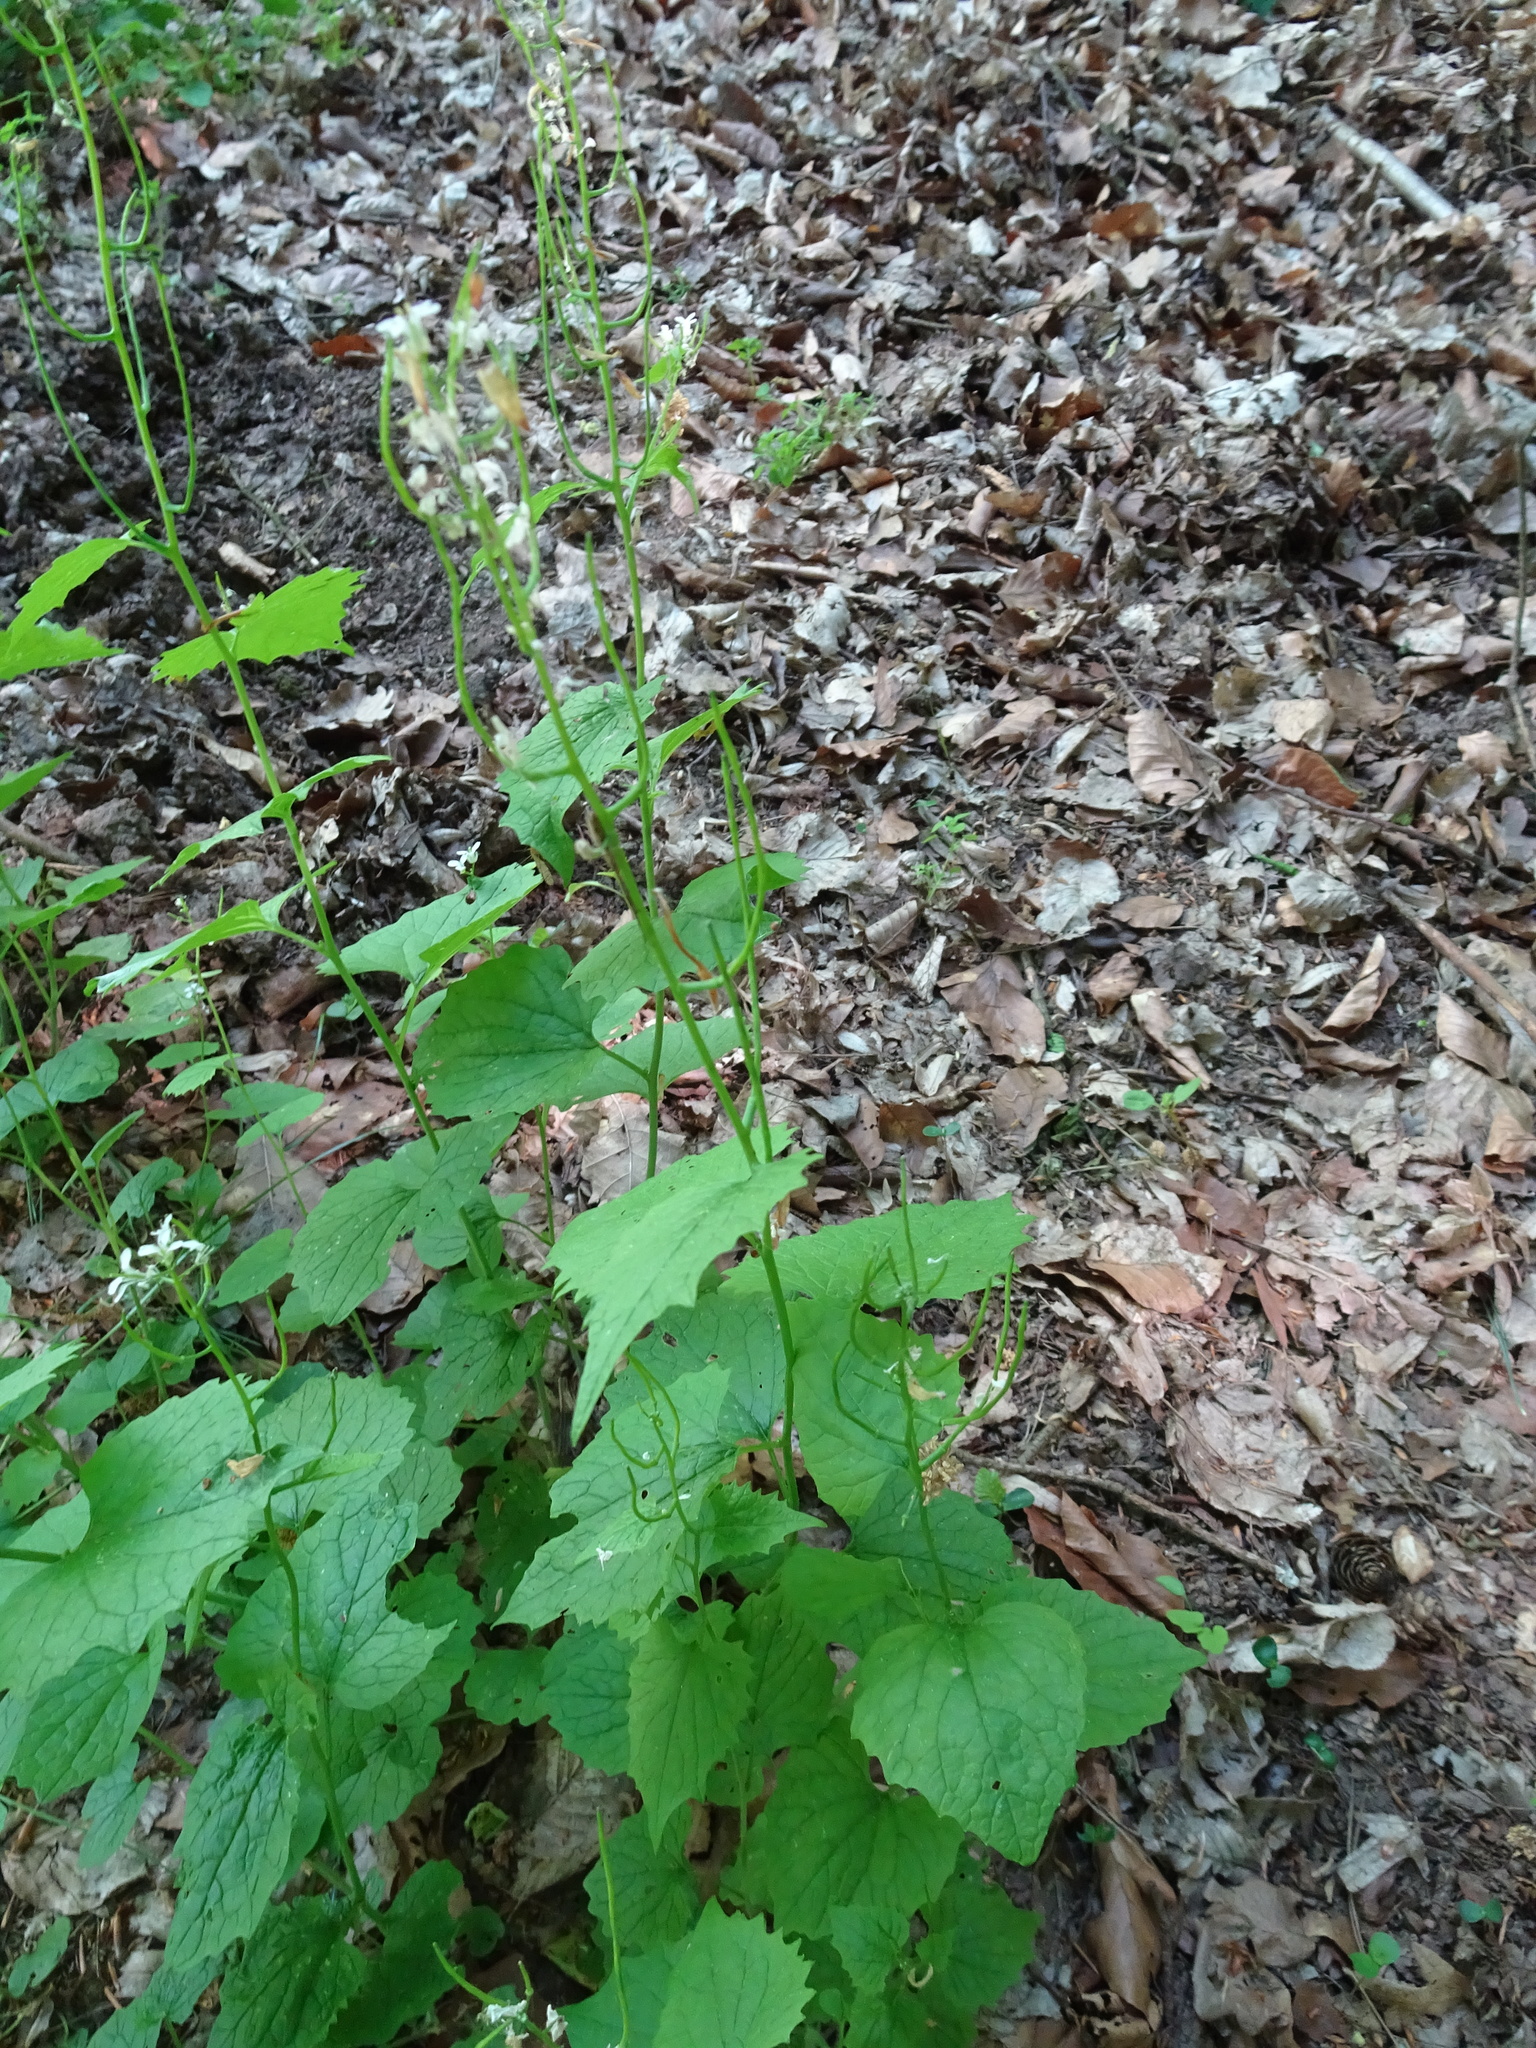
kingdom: Plantae
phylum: Tracheophyta
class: Magnoliopsida
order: Brassicales
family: Brassicaceae
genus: Alliaria
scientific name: Alliaria petiolata
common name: Garlic mustard
